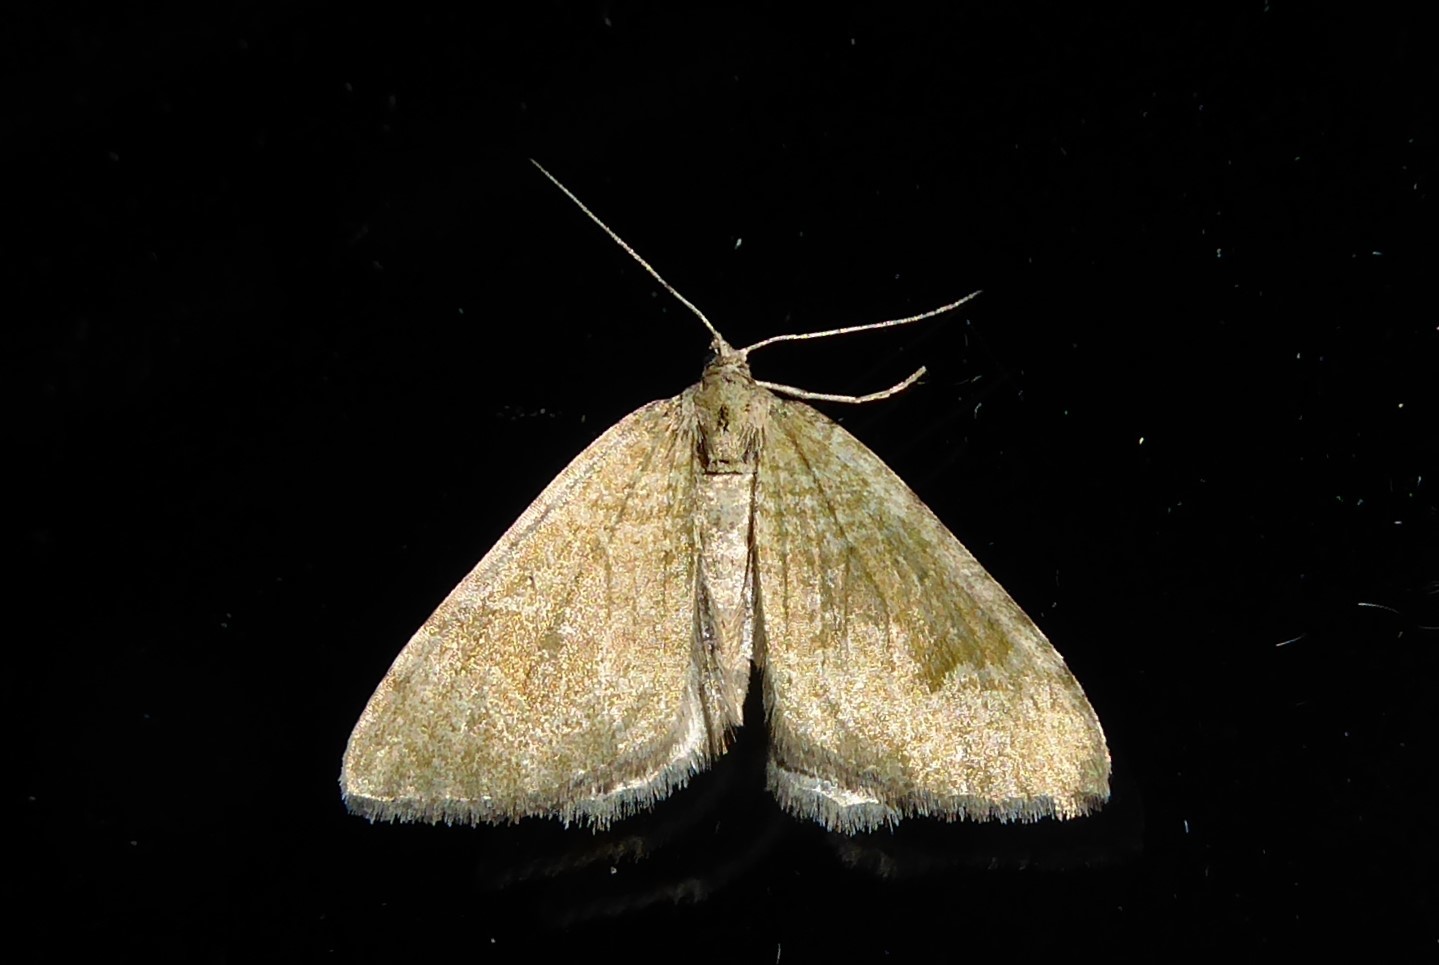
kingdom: Animalia
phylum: Arthropoda
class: Insecta
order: Lepidoptera
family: Geometridae
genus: Epyaxa
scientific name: Epyaxa rosearia
